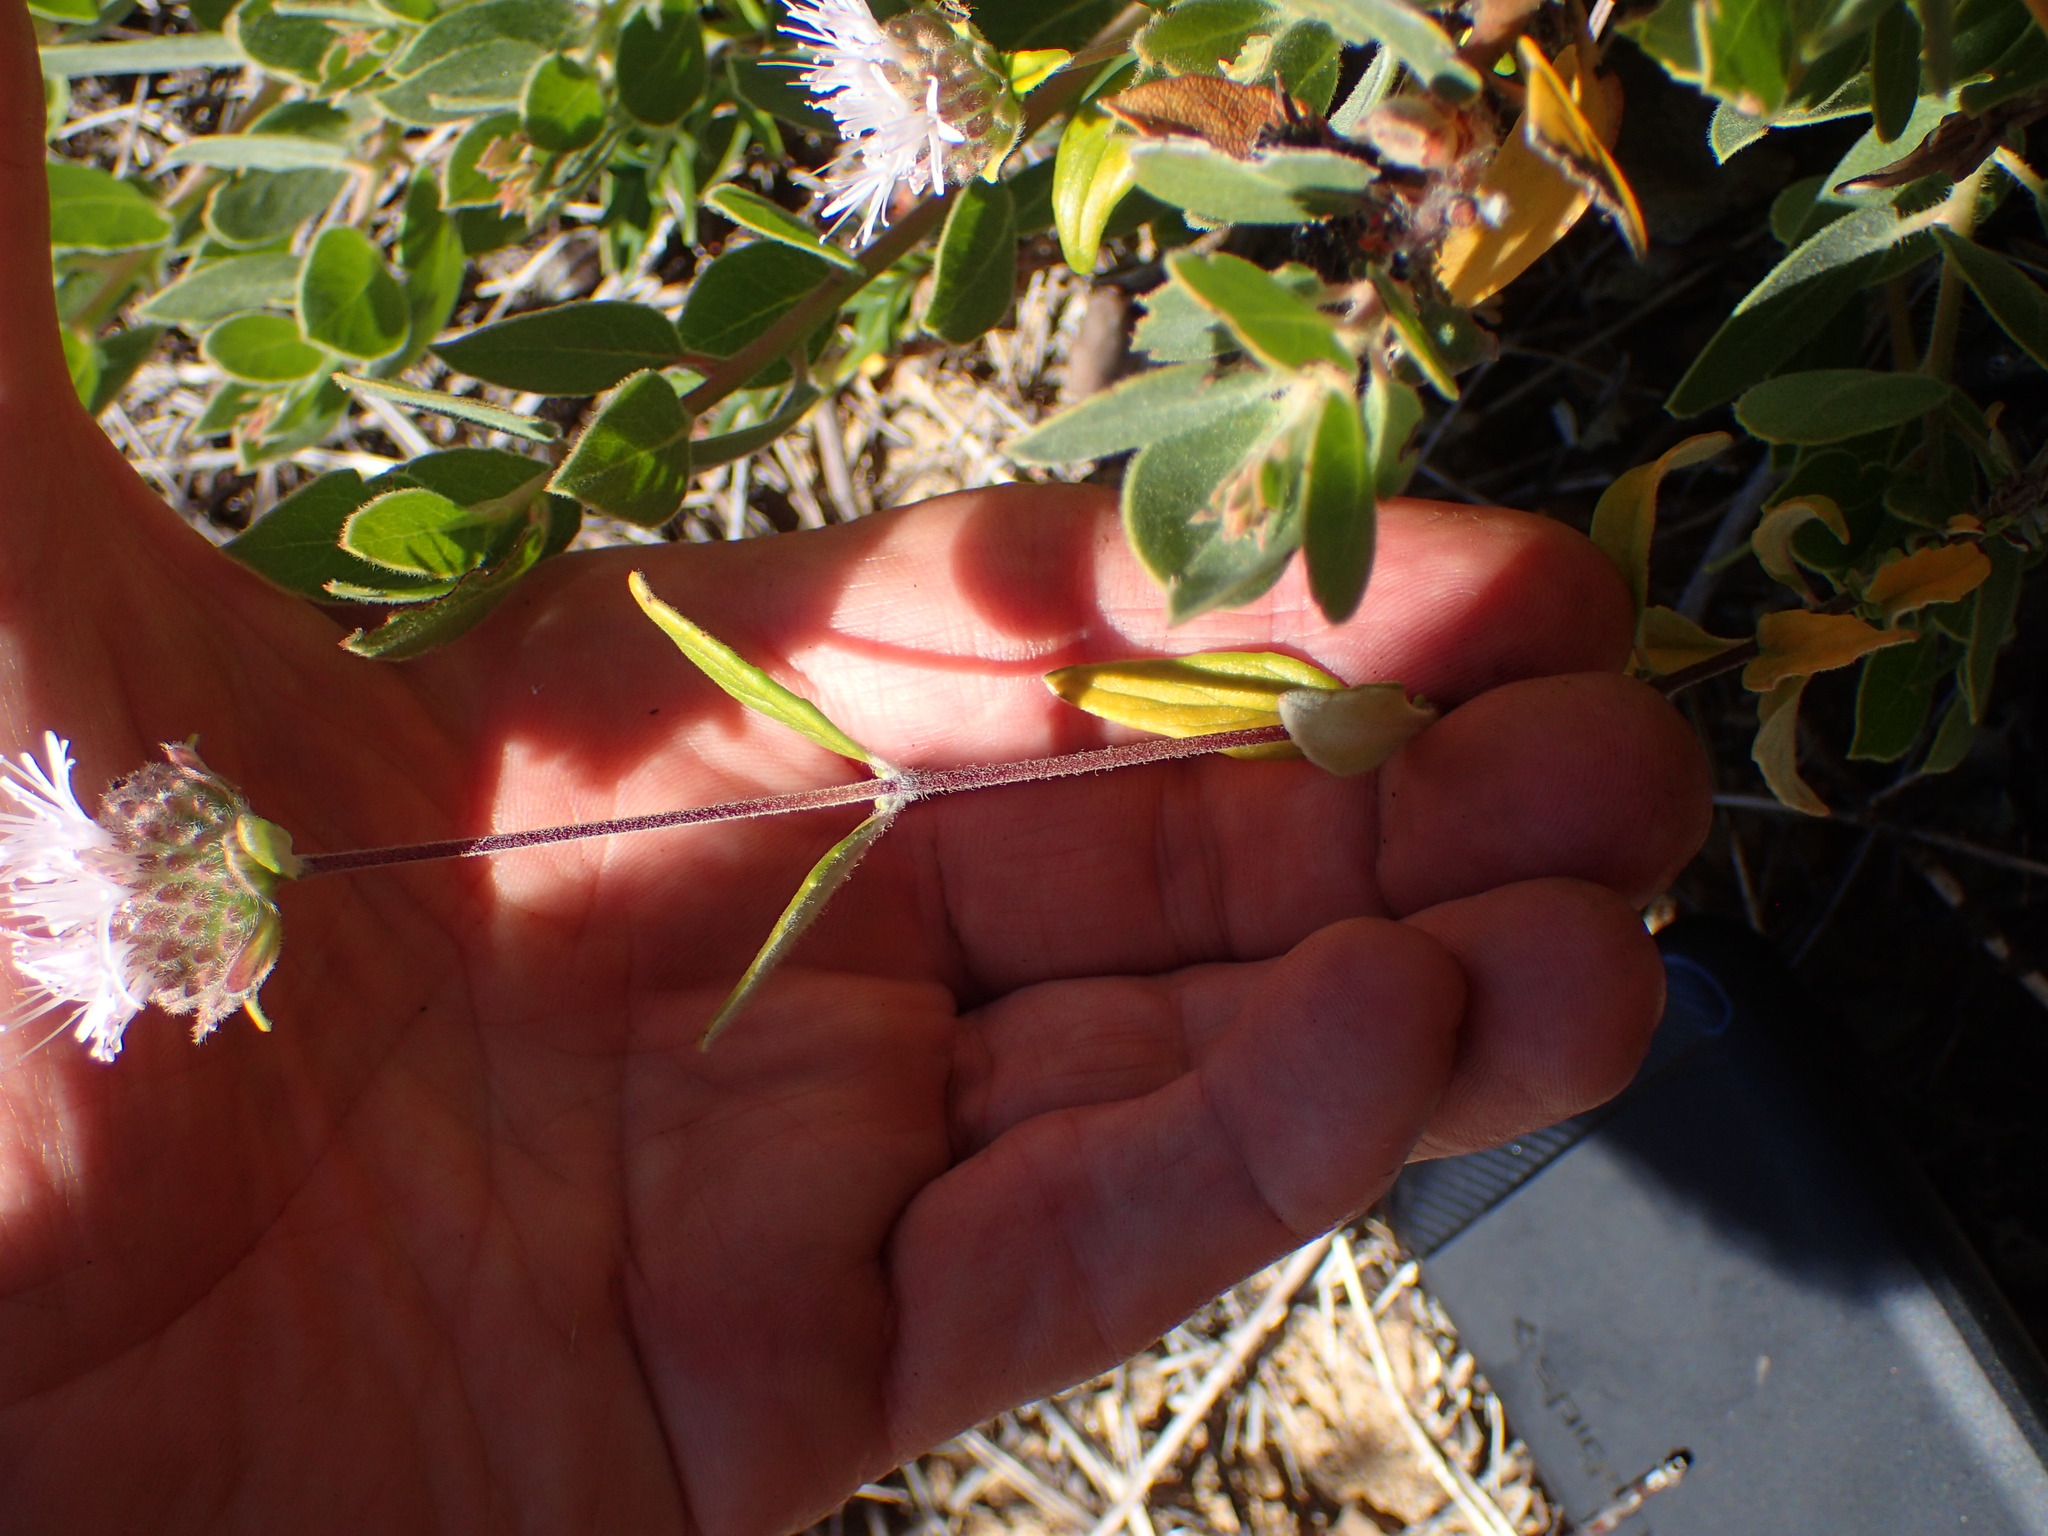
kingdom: Plantae
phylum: Tracheophyta
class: Magnoliopsida
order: Lamiales
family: Lamiaceae
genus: Monardella
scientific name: Monardella hypoleuca
